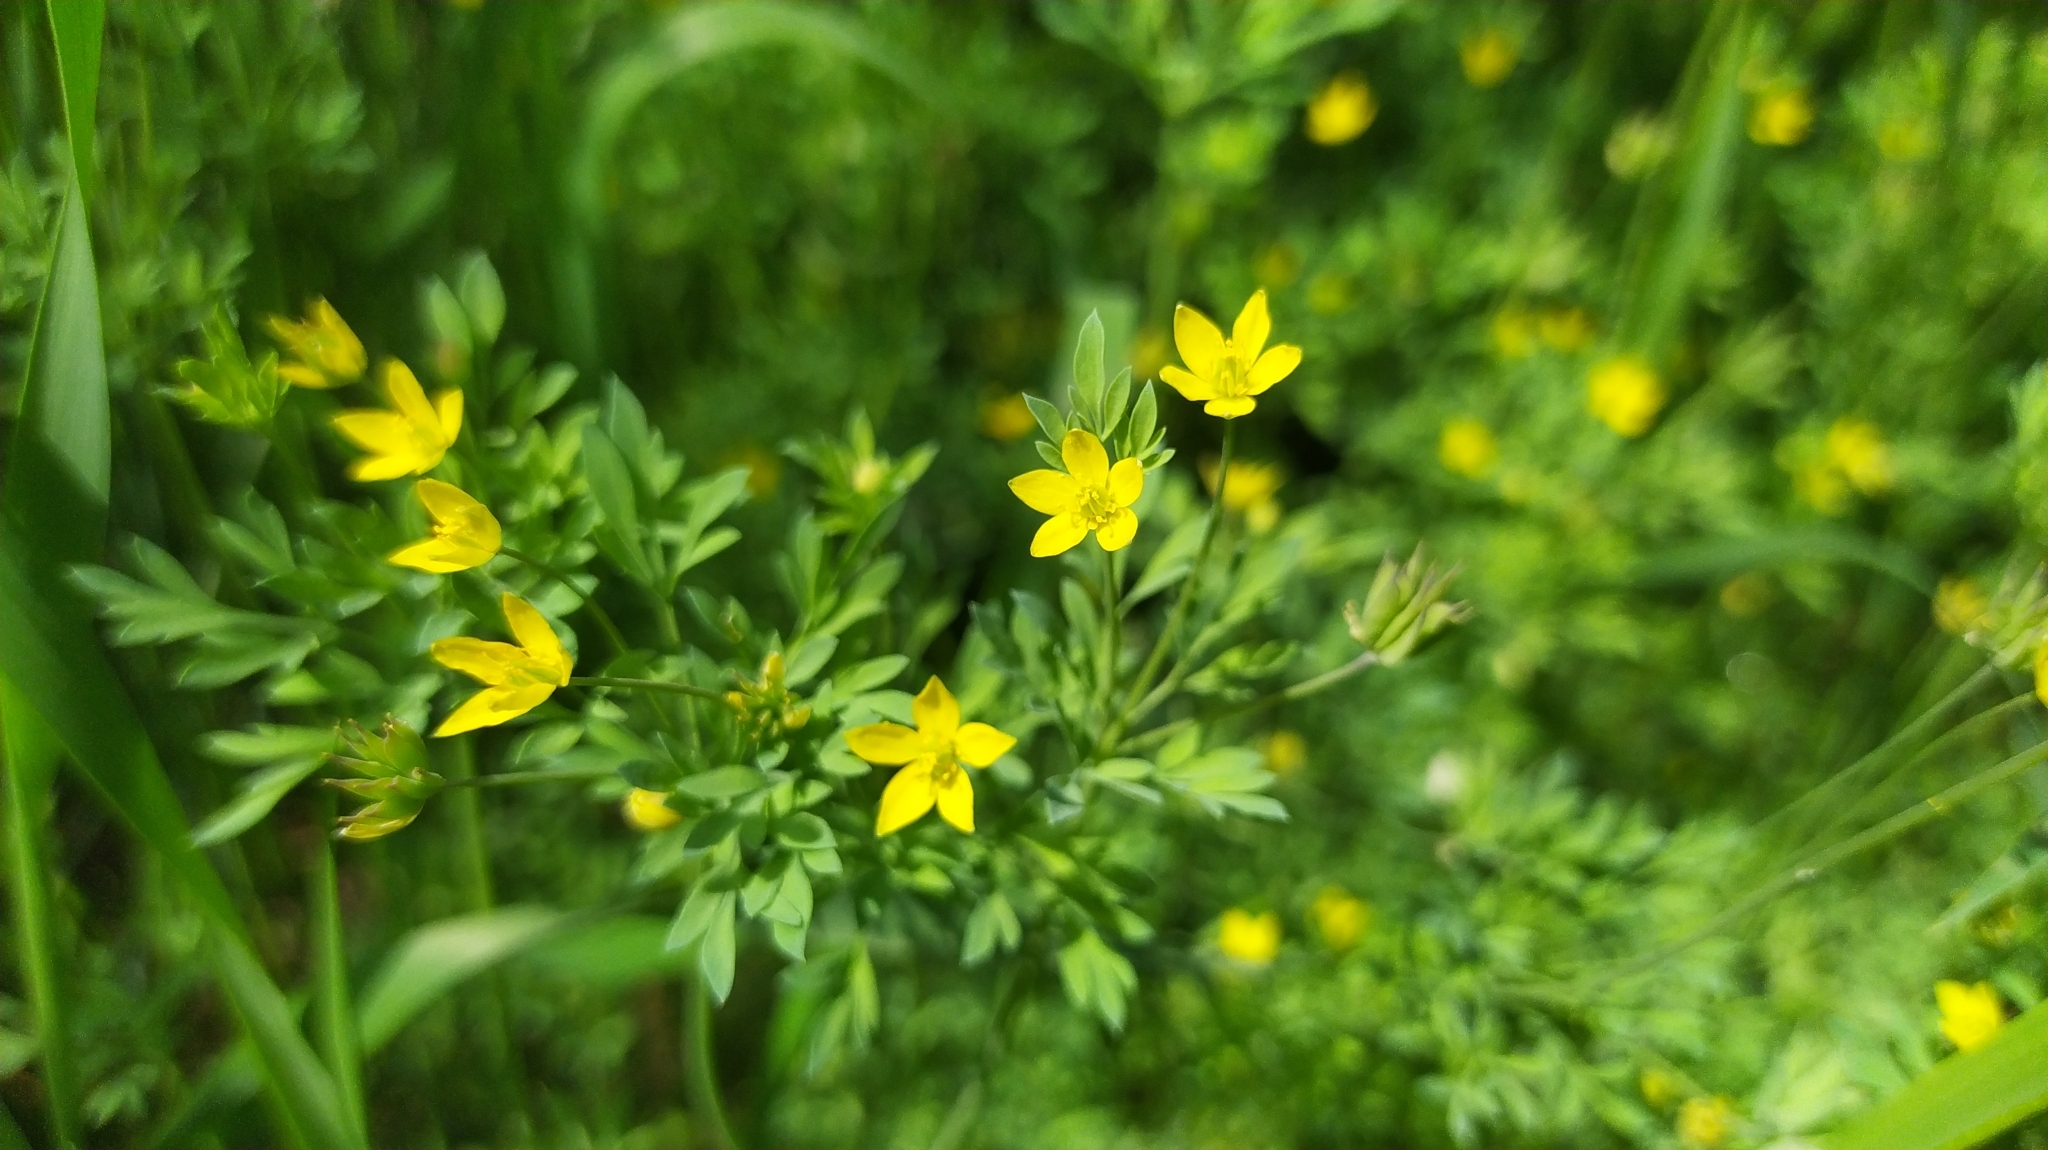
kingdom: Plantae
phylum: Tracheophyta
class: Magnoliopsida
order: Ranunculales
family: Ranunculaceae
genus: Leptopyrum
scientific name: Leptopyrum fumarioides
